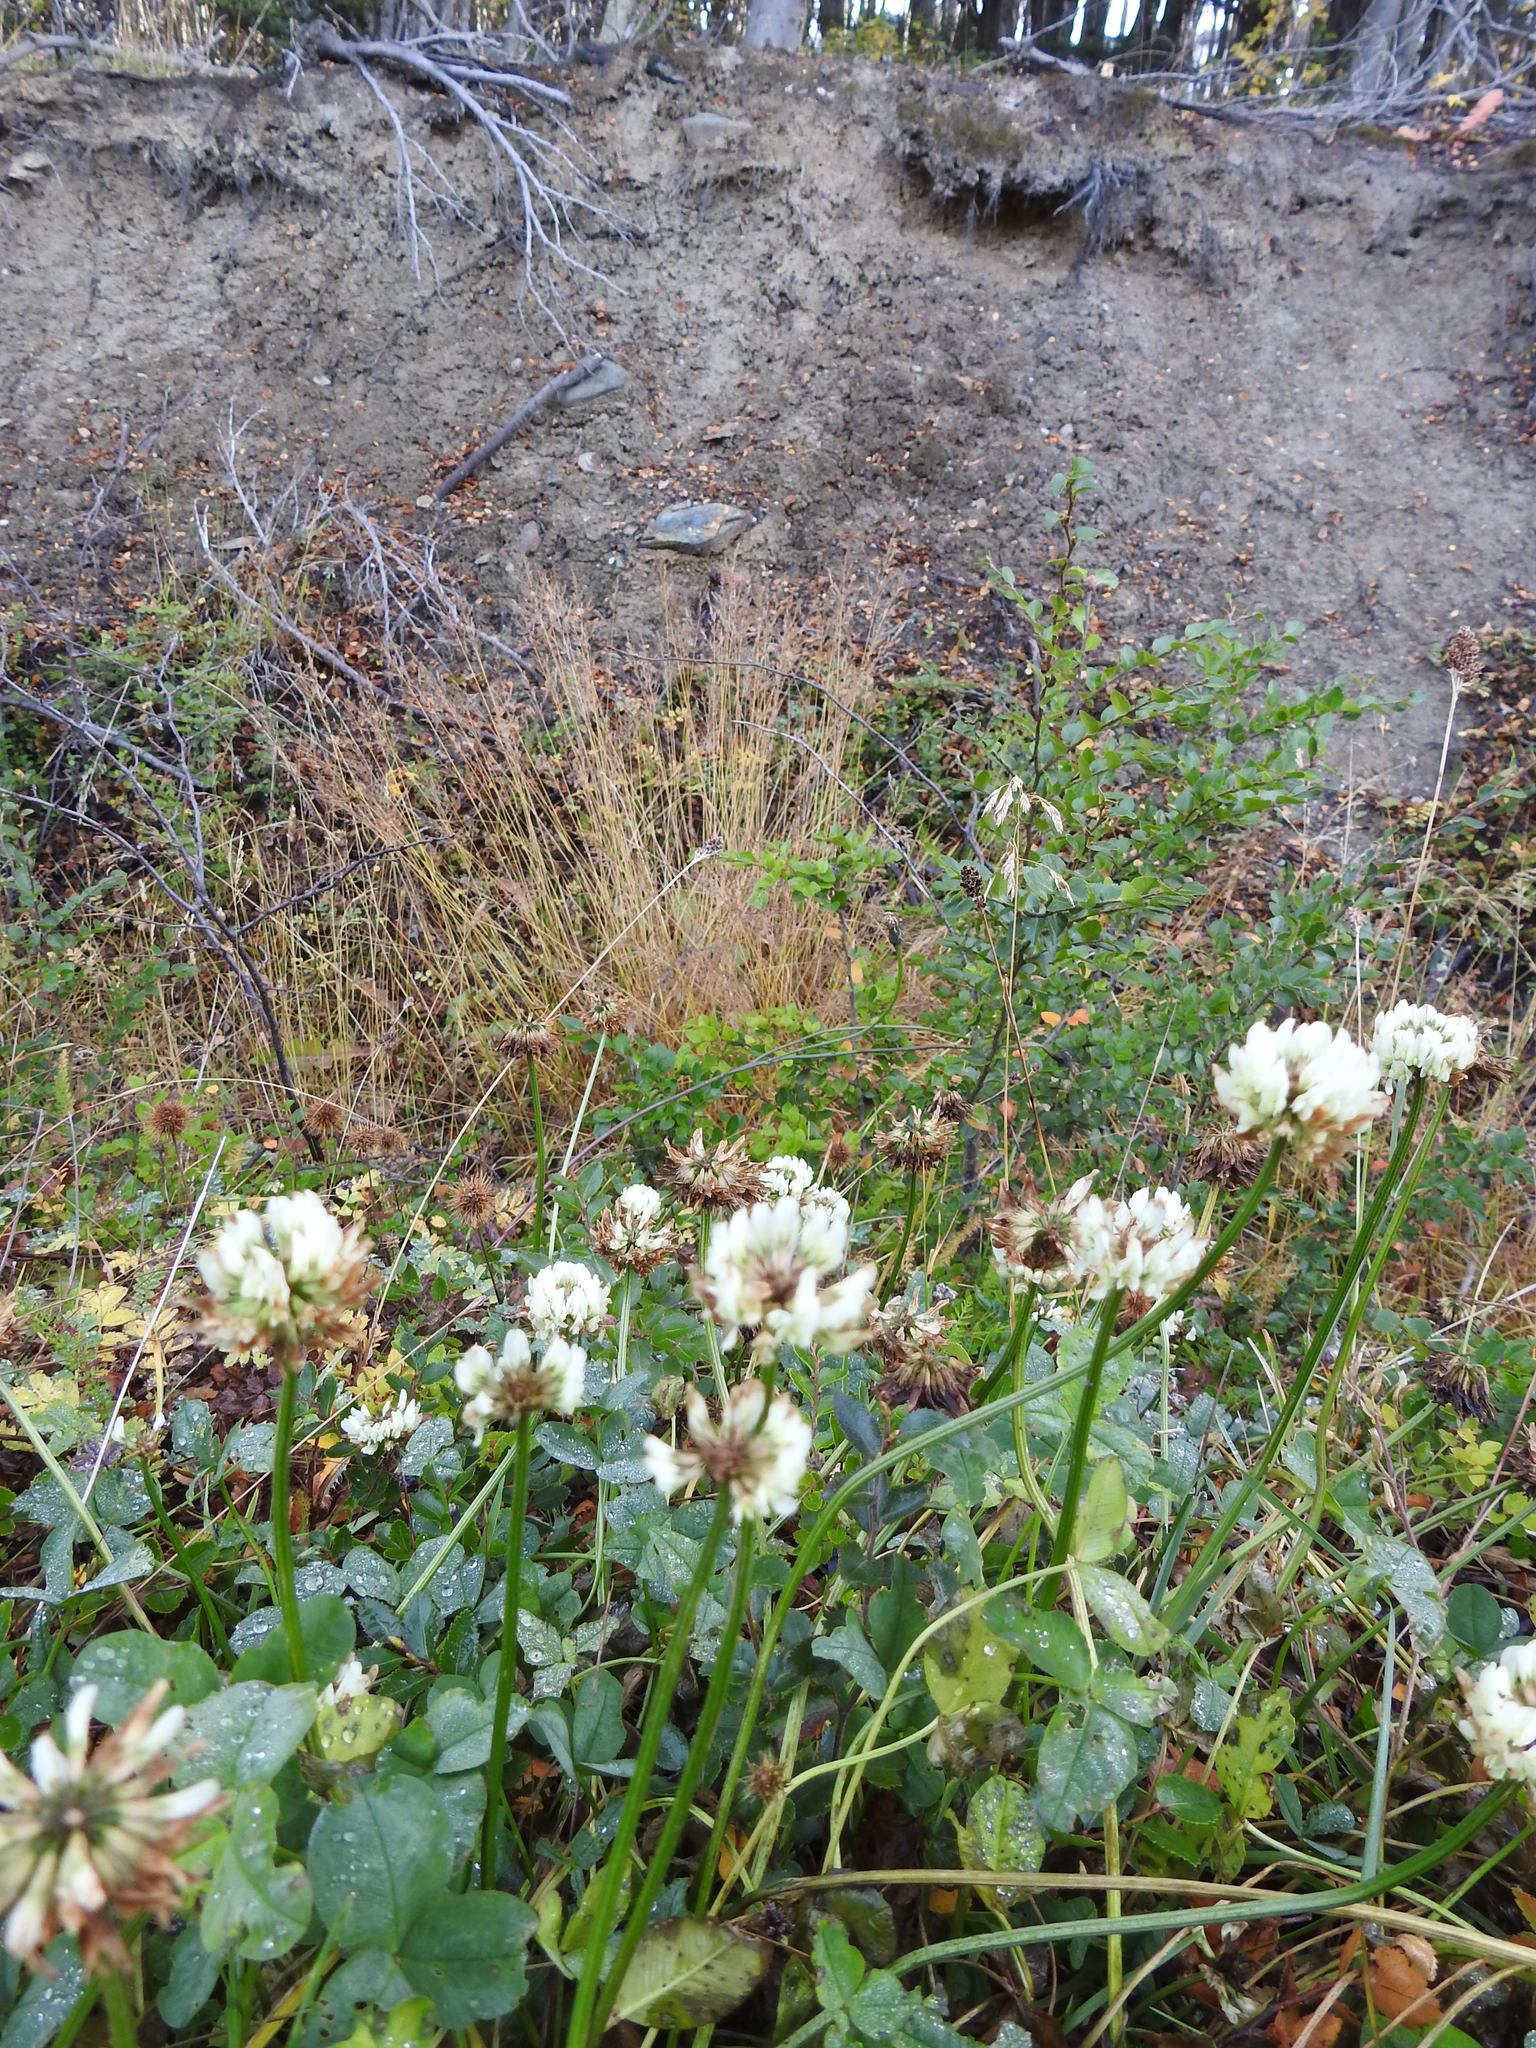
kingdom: Plantae
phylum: Tracheophyta
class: Magnoliopsida
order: Fabales
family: Fabaceae
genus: Trifolium
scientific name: Trifolium repens
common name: White clover
